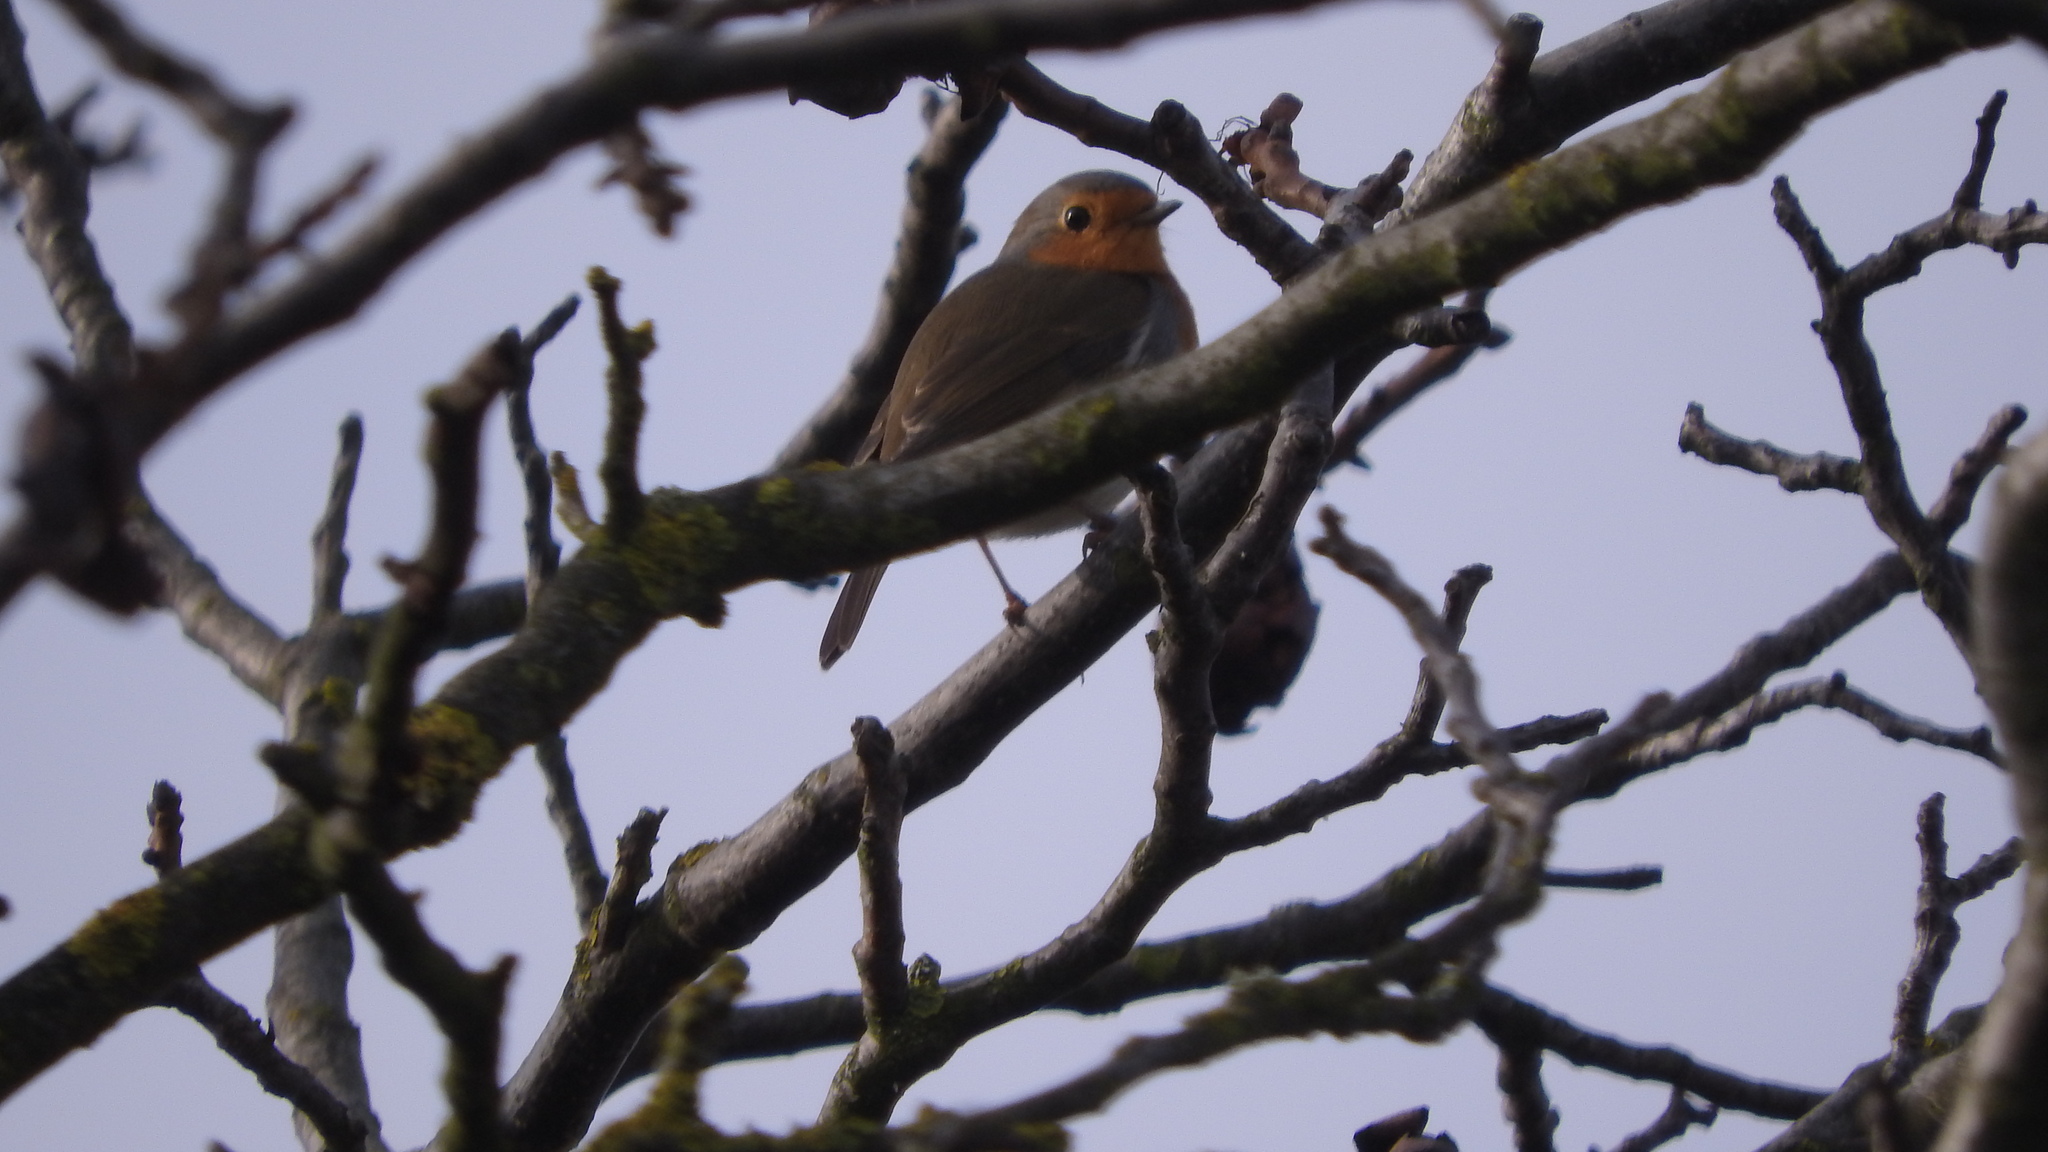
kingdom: Animalia
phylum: Chordata
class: Aves
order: Passeriformes
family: Muscicapidae
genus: Erithacus
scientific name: Erithacus rubecula
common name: European robin
